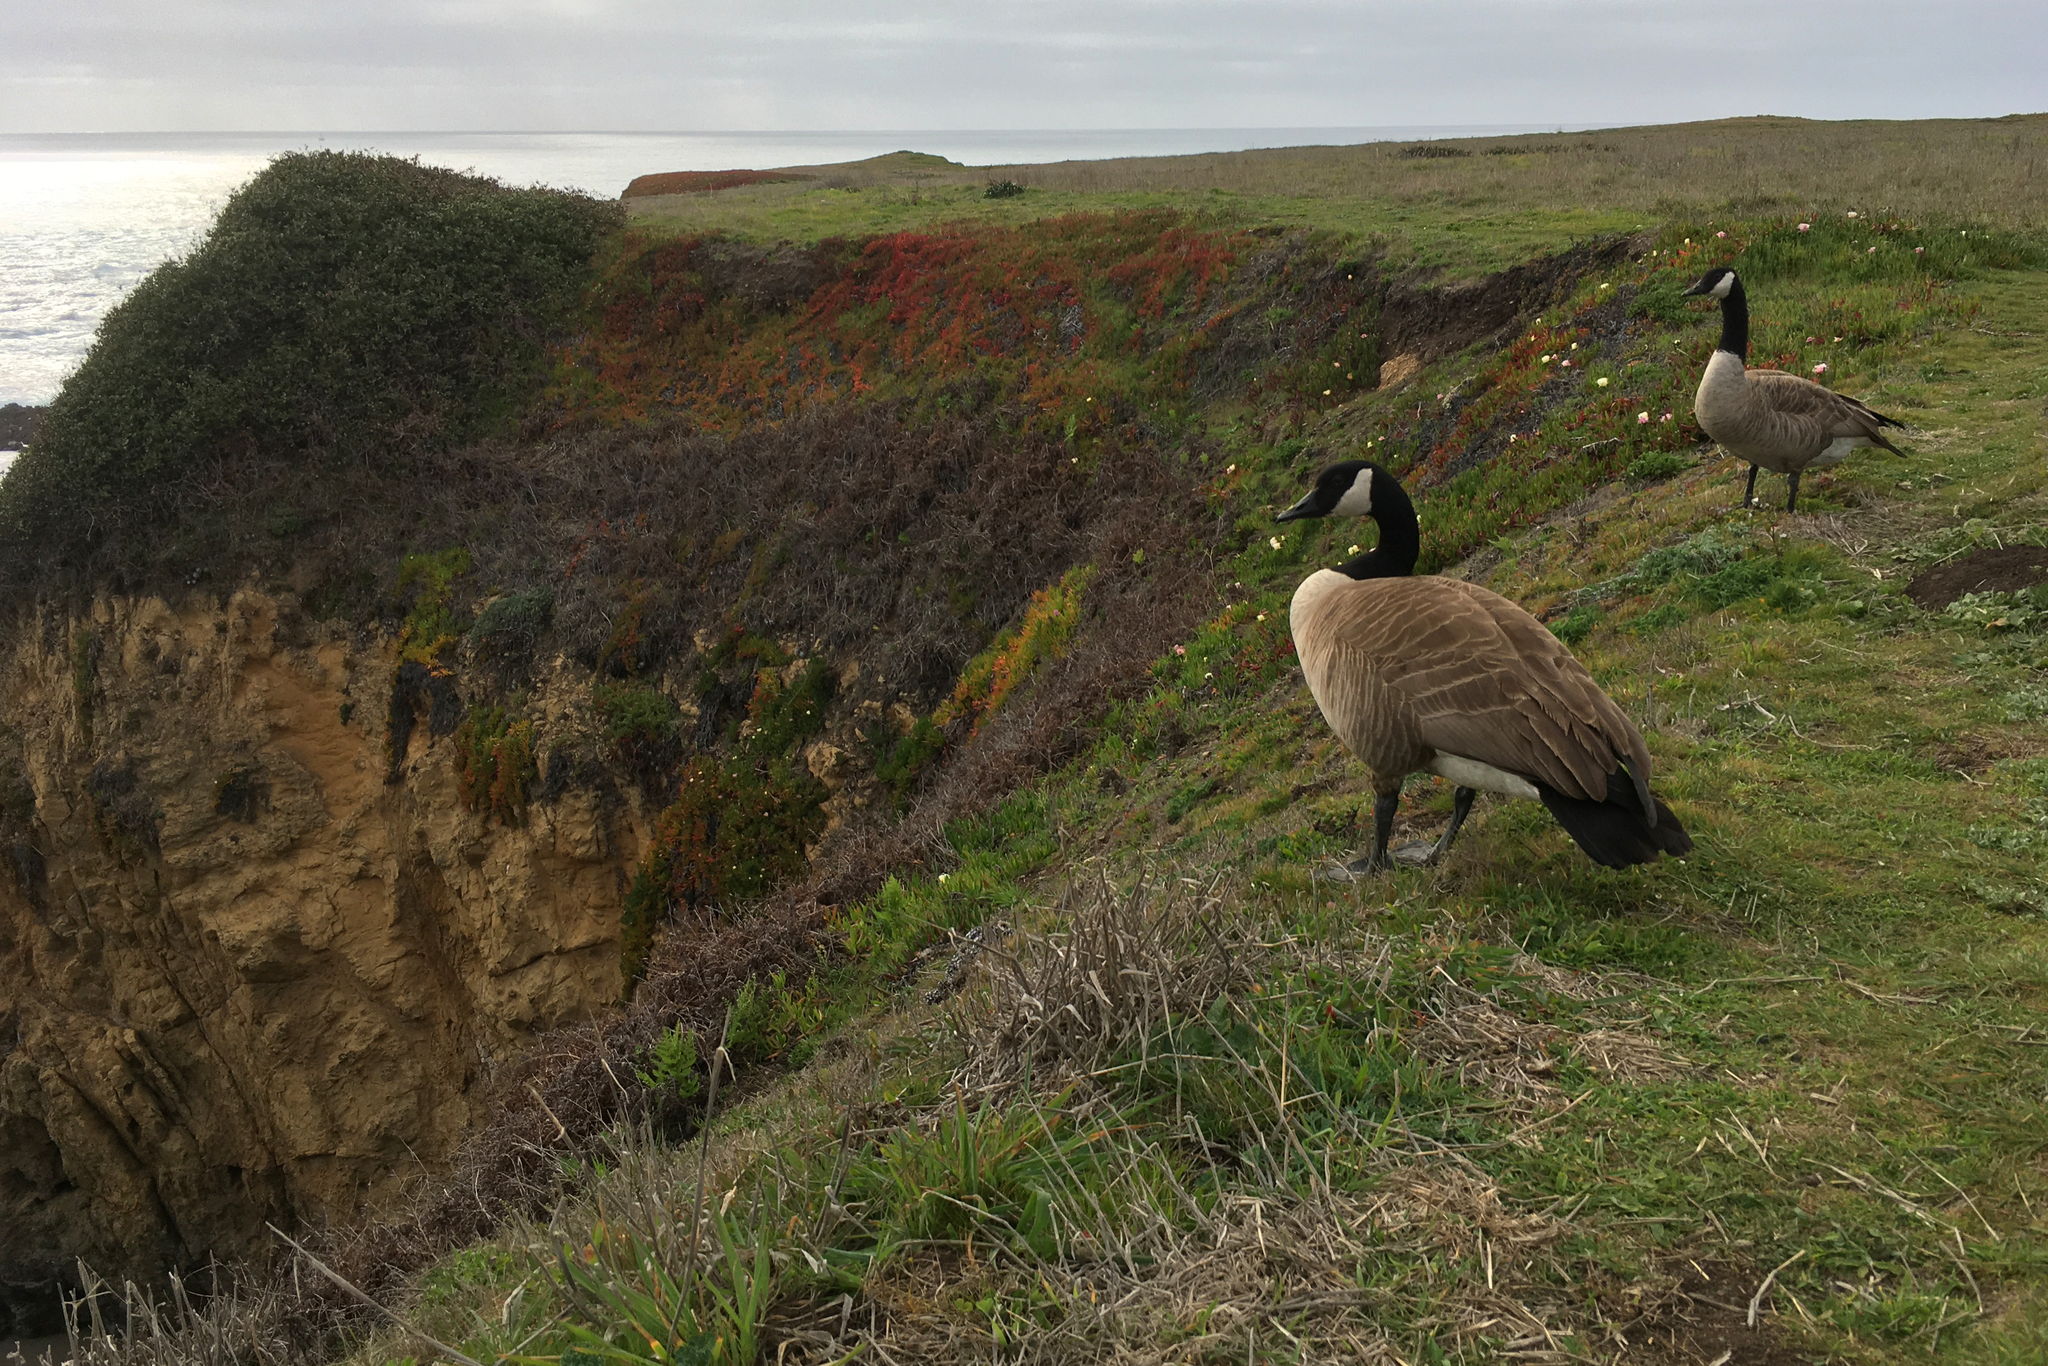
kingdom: Animalia
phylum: Chordata
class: Aves
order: Anseriformes
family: Anatidae
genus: Branta
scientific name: Branta canadensis
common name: Canada goose
